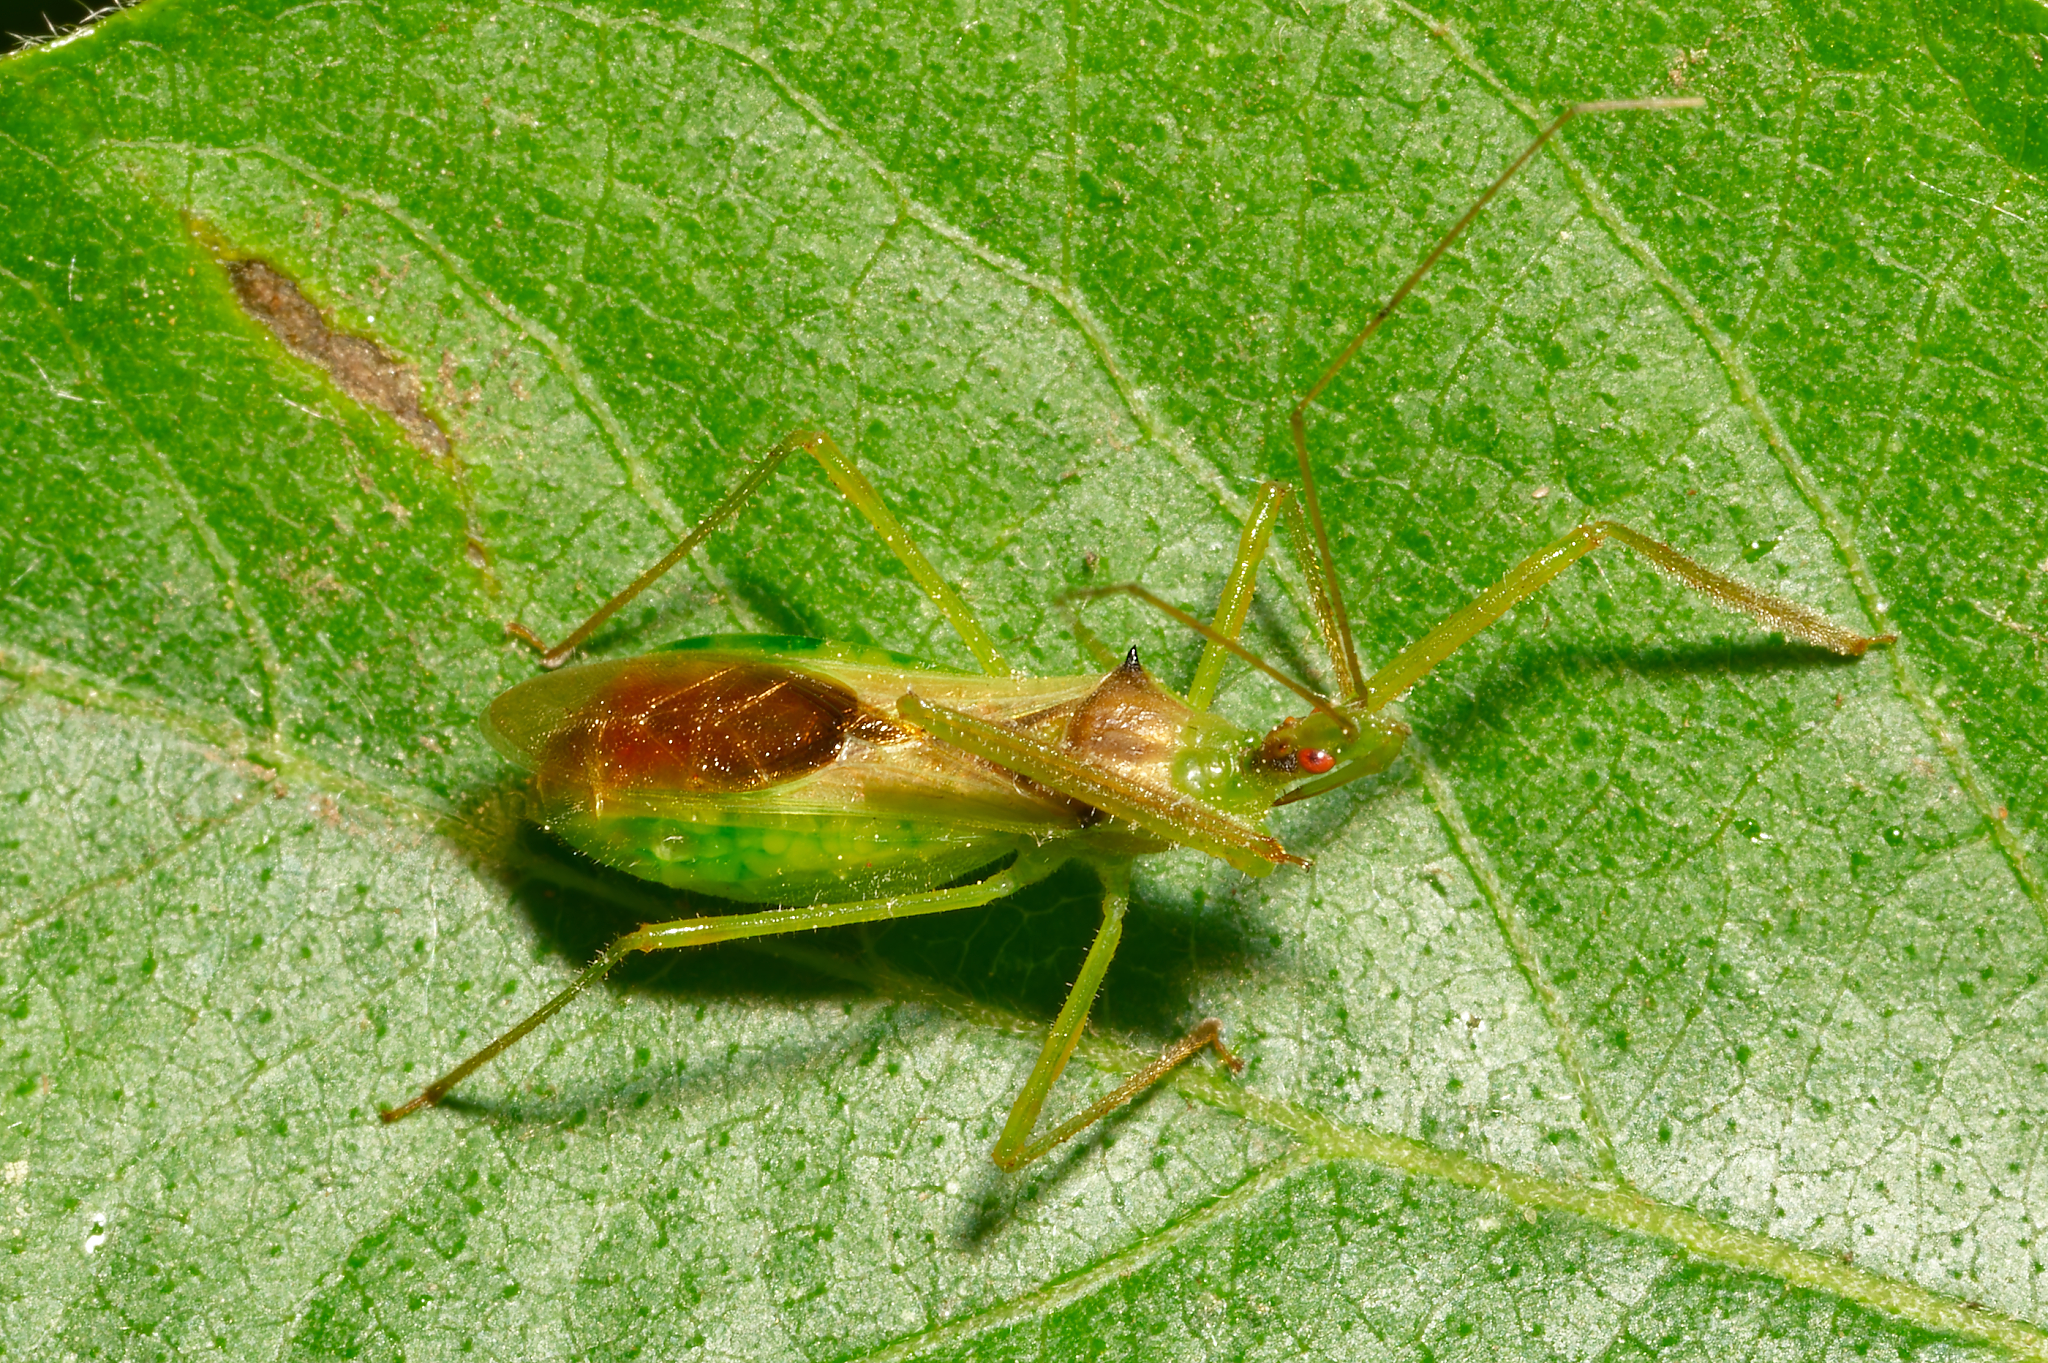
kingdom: Animalia
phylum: Arthropoda
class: Insecta
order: Hemiptera
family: Reduviidae
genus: Zelus
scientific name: Zelus luridus
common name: Pale green assassin bug
